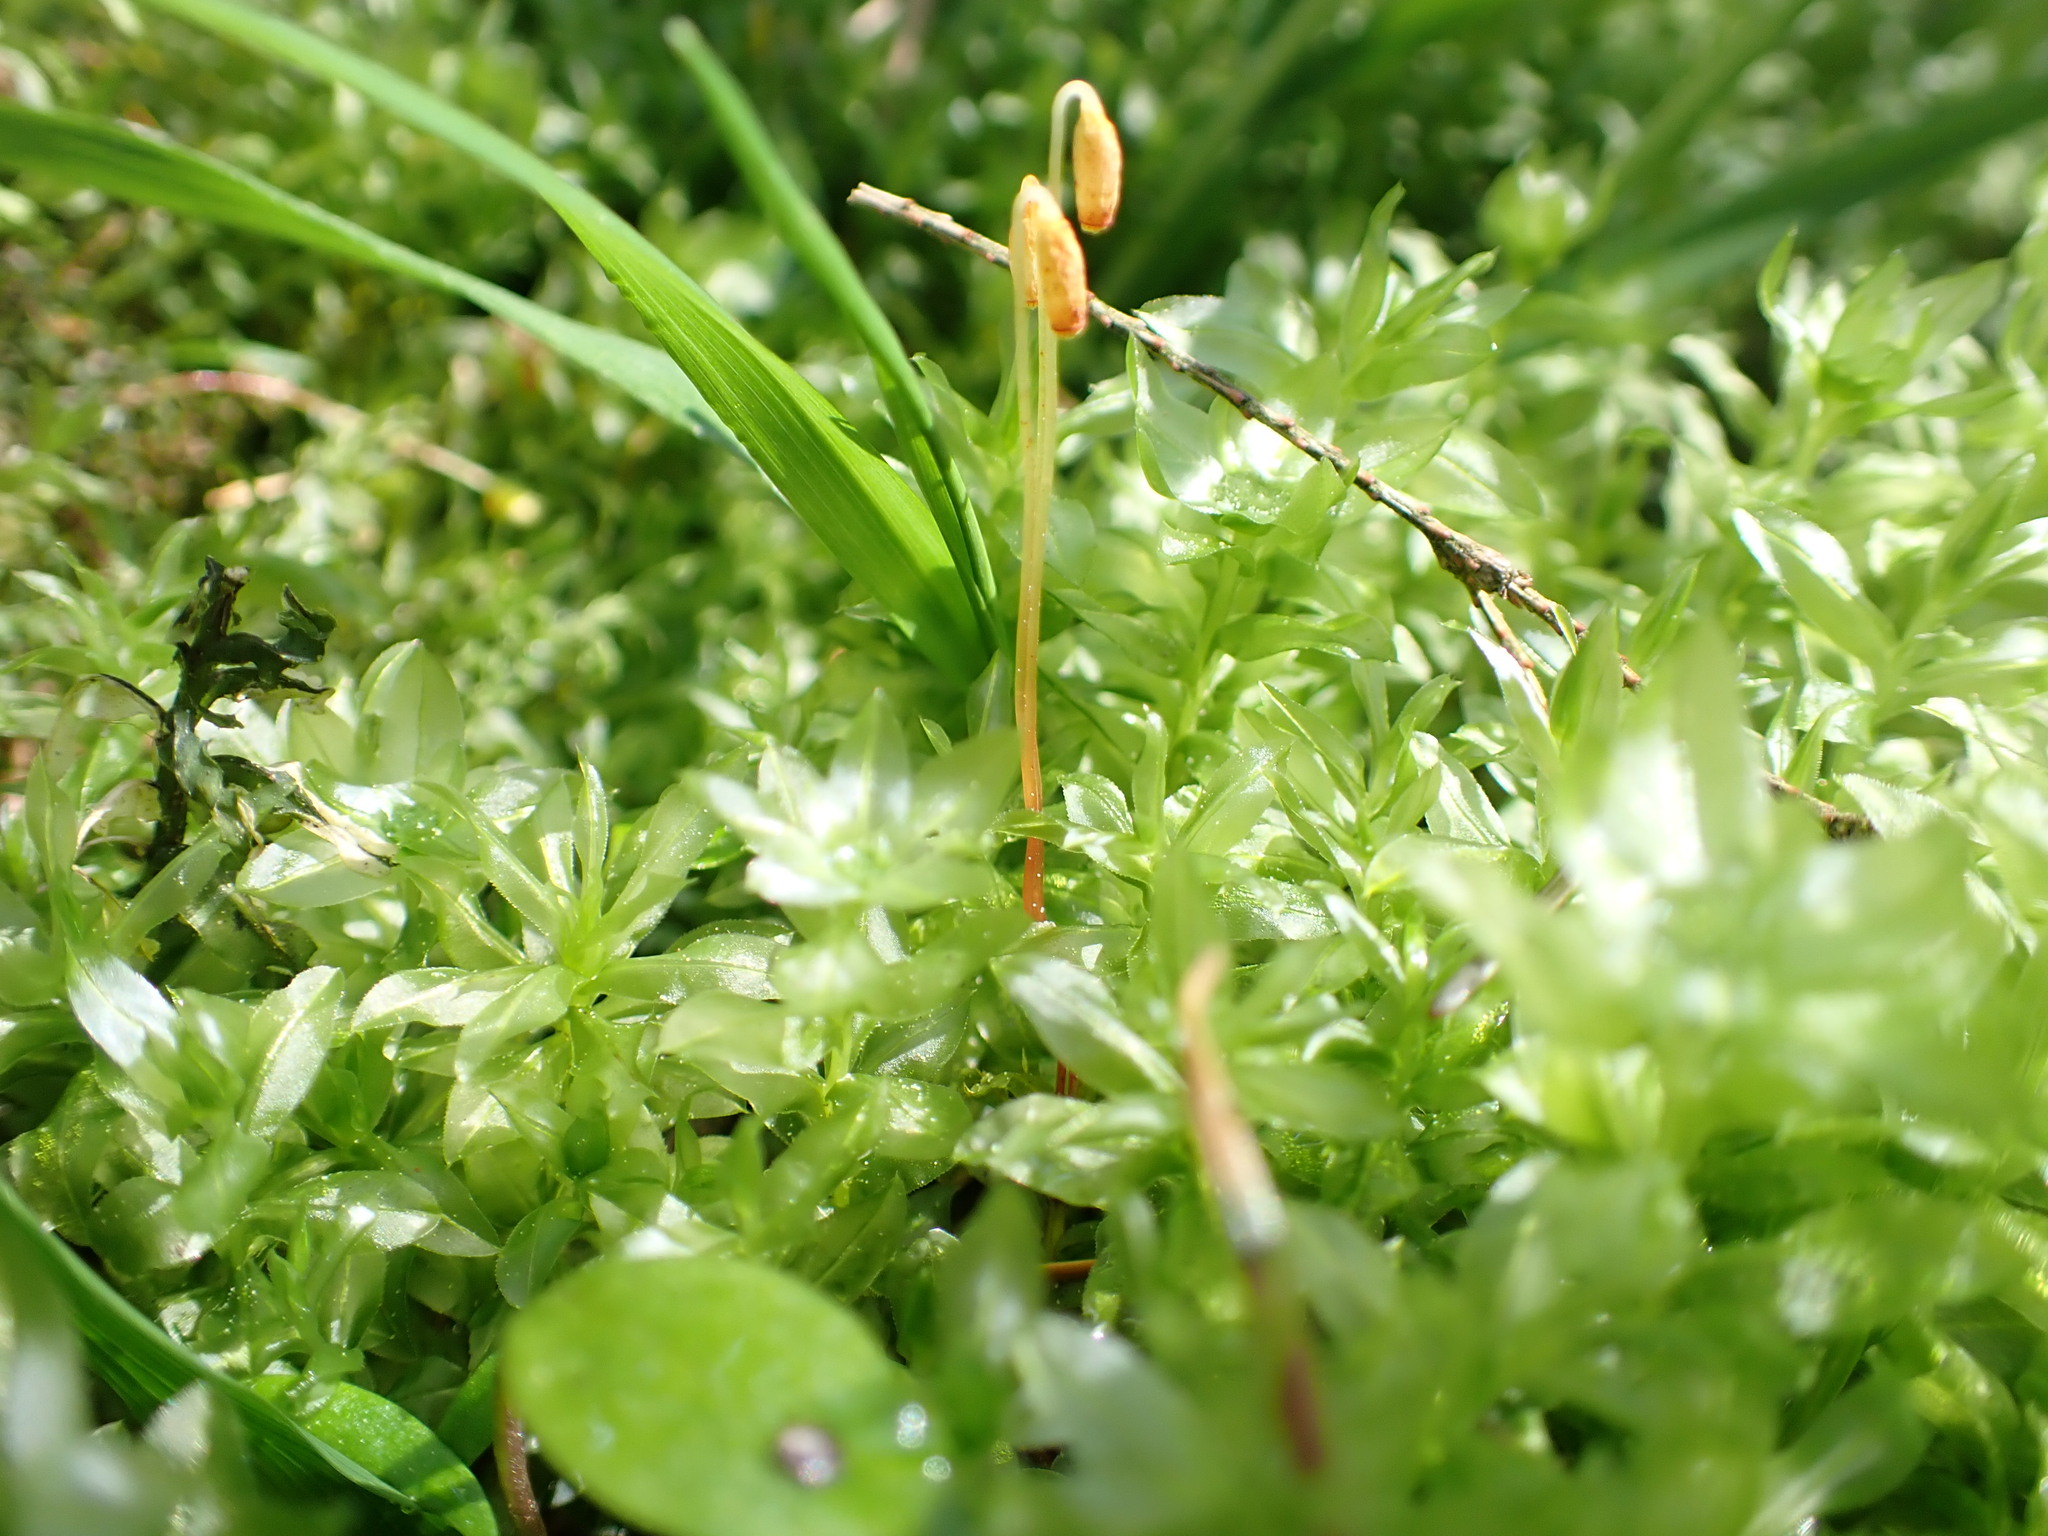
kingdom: Plantae
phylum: Bryophyta
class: Bryopsida
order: Bryales
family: Mniaceae
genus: Plagiomnium
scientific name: Plagiomnium insigne
